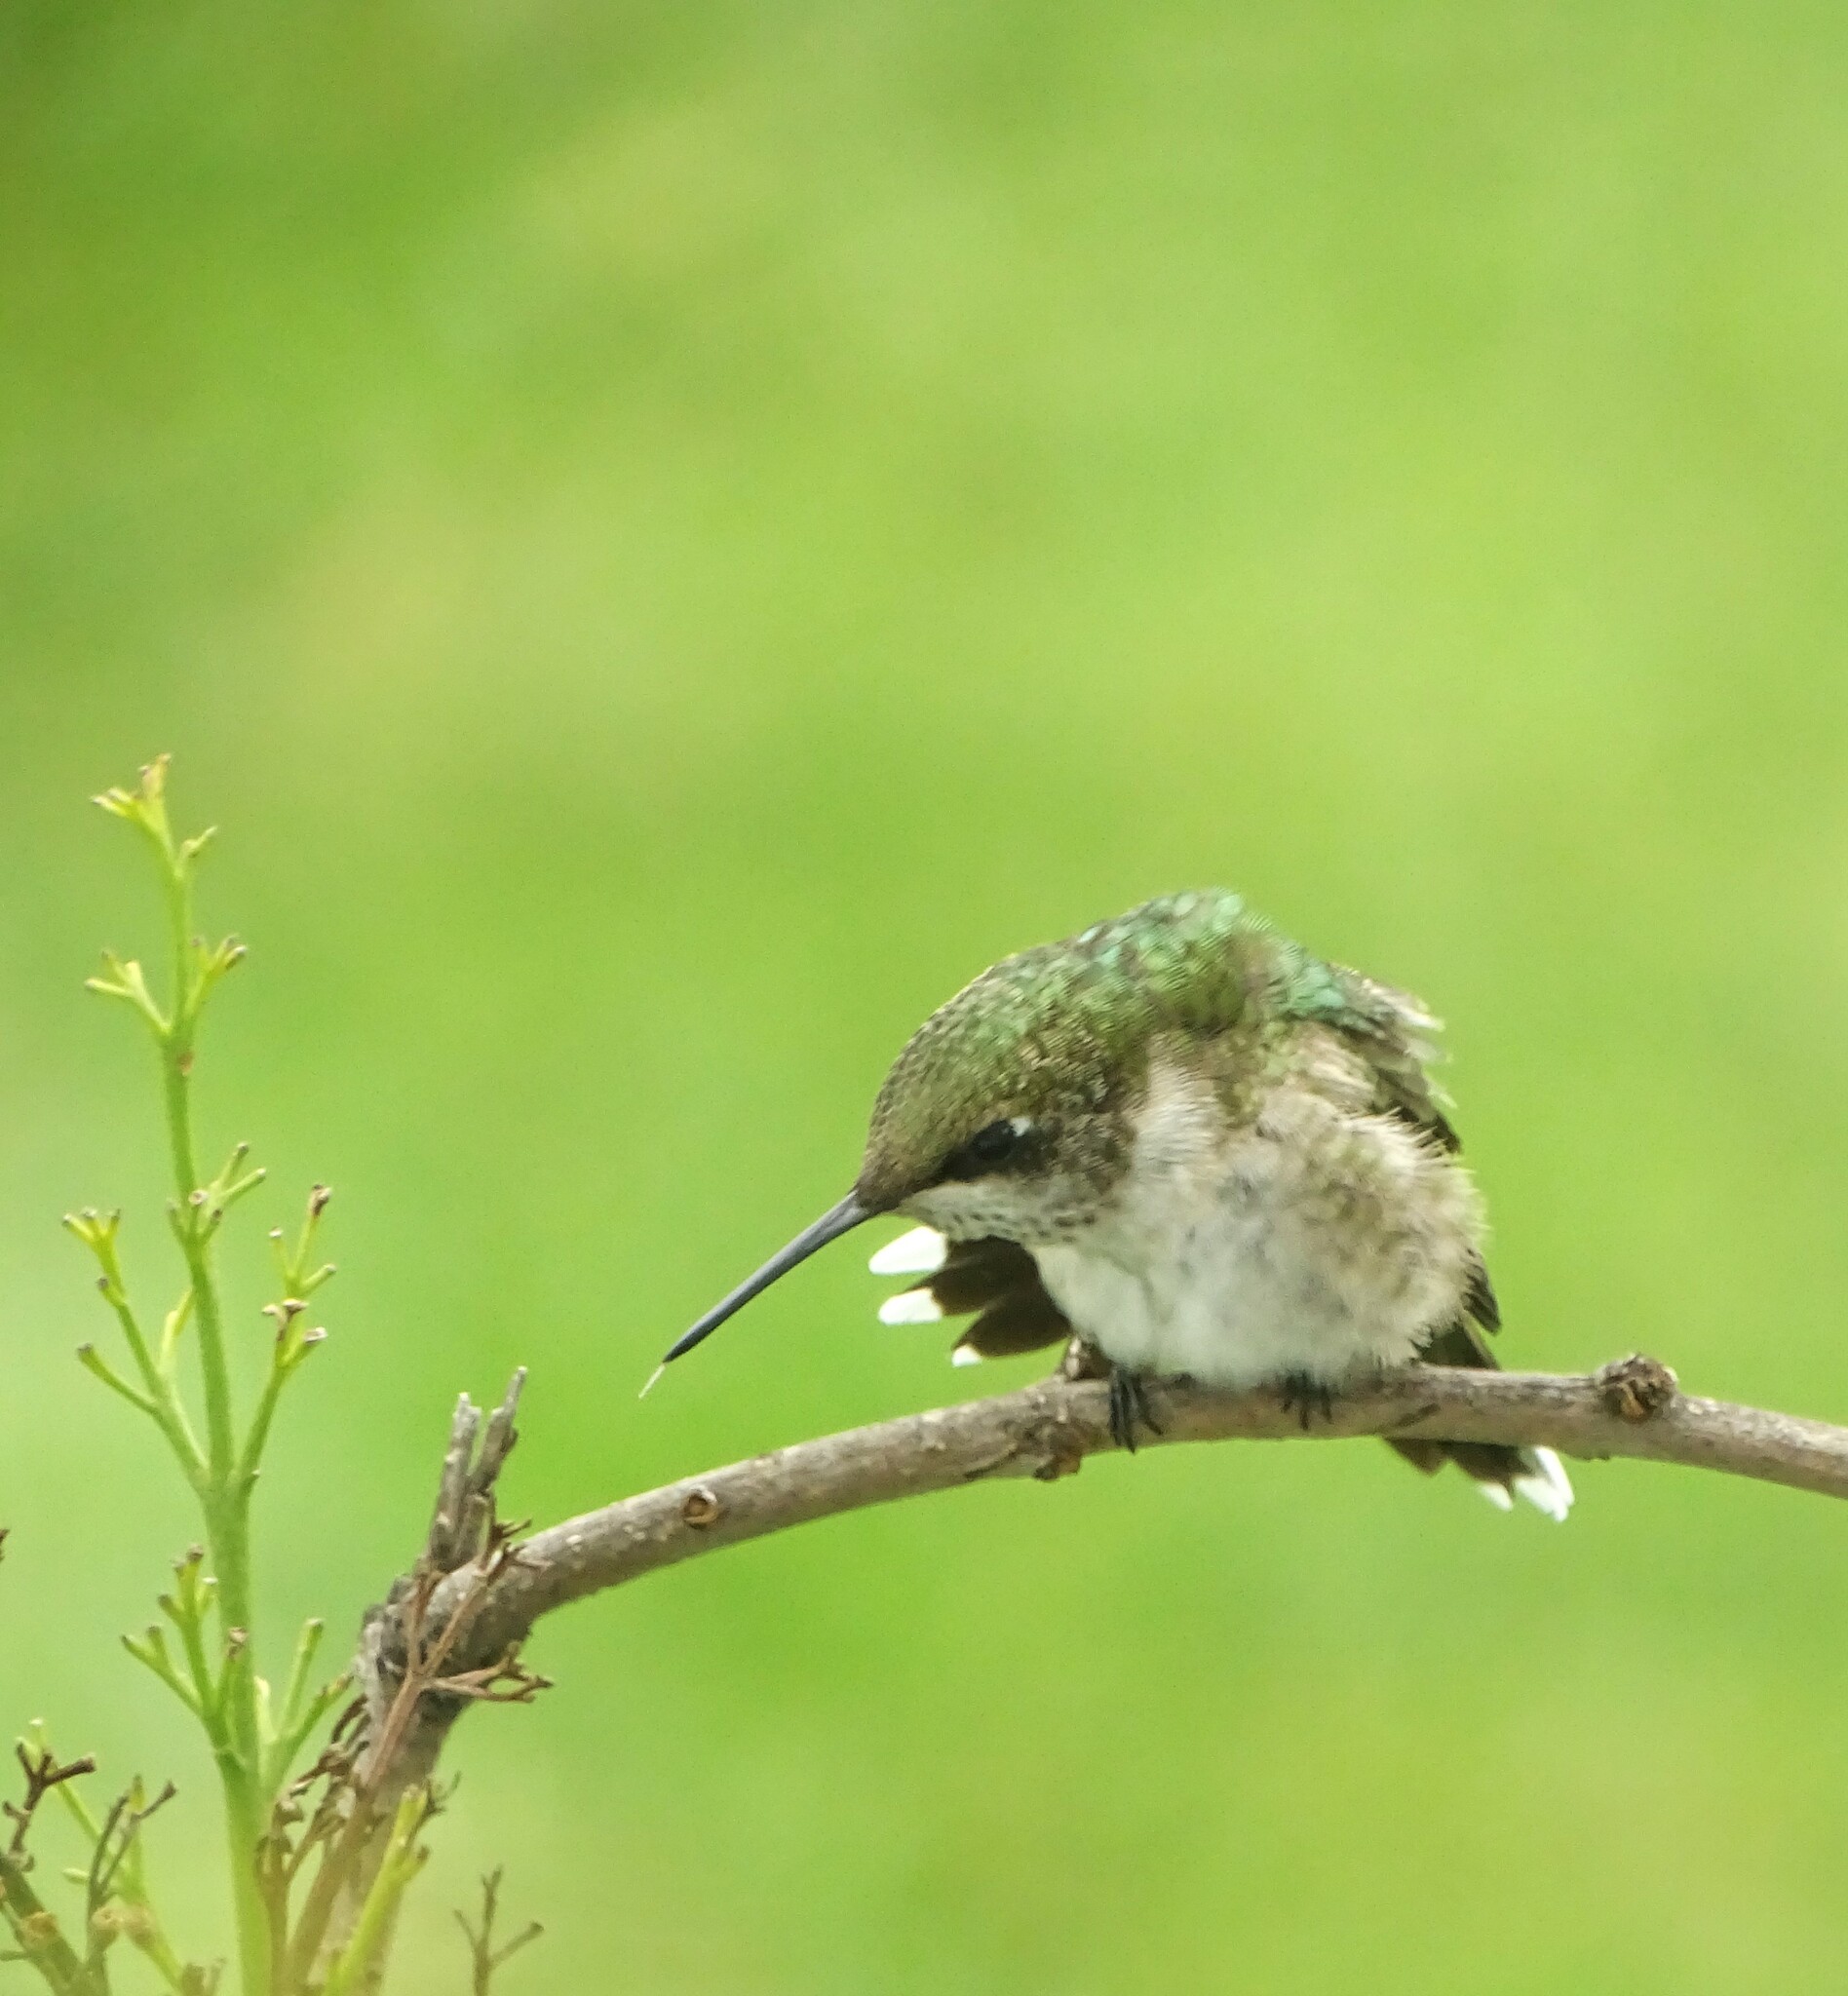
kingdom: Animalia
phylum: Chordata
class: Aves
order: Apodiformes
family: Trochilidae
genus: Archilochus
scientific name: Archilochus colubris
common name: Ruby-throated hummingbird
